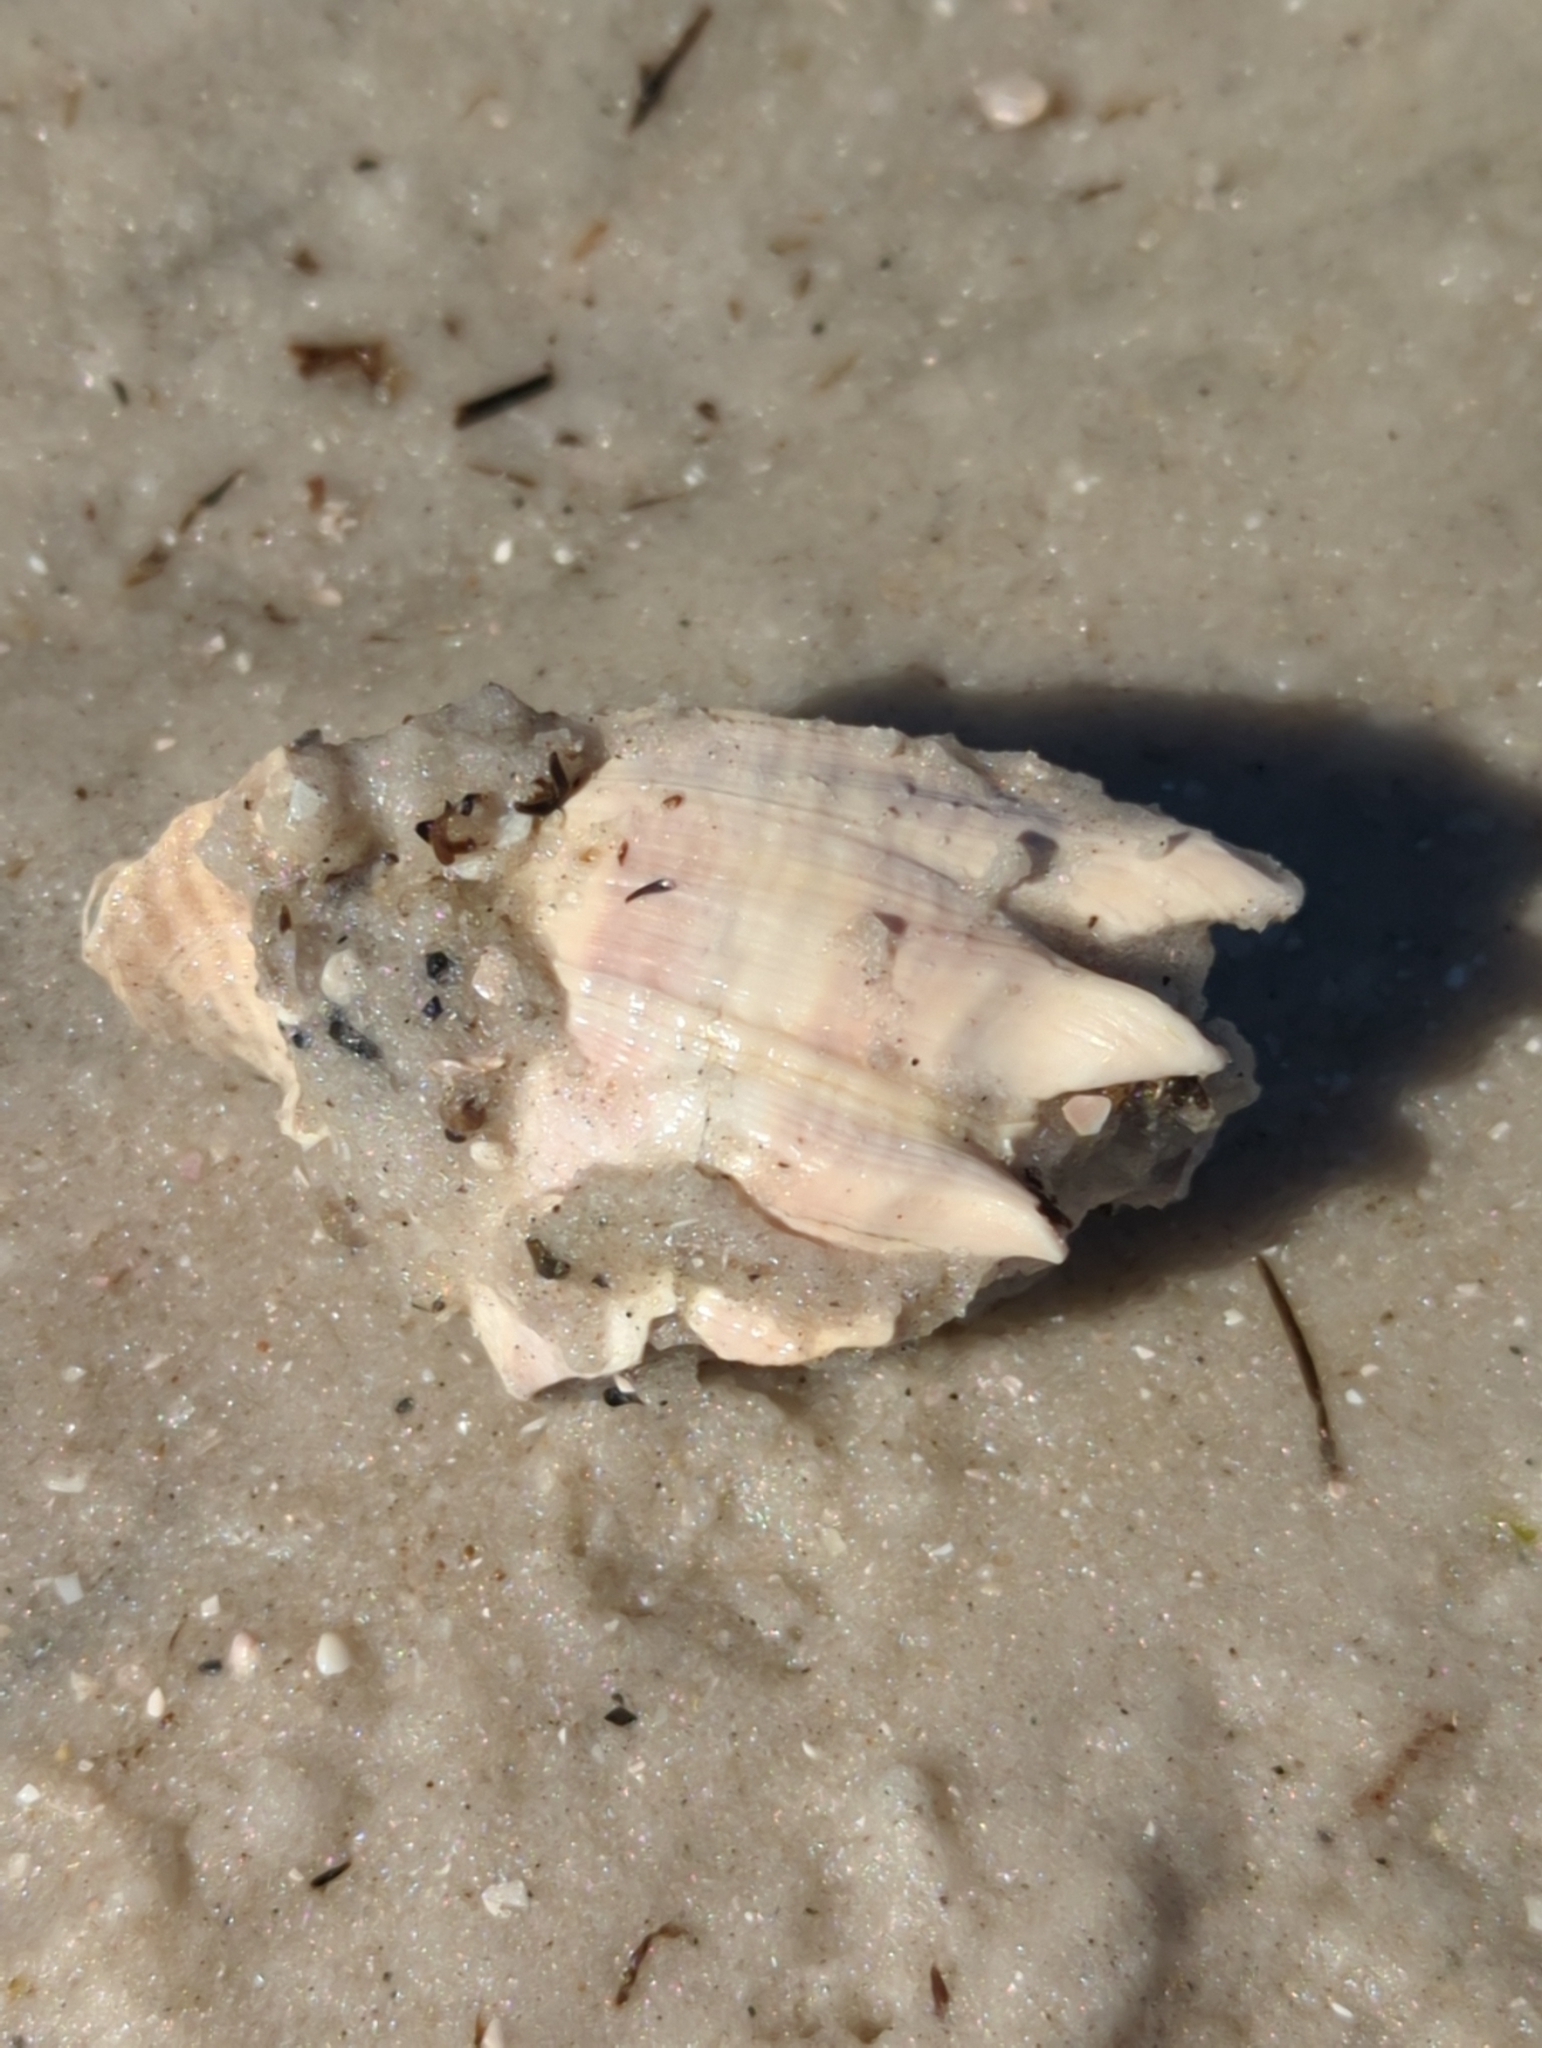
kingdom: Animalia
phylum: Mollusca
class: Gastropoda
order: Neogastropoda
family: Melongenidae
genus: Melongena
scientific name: Melongena corona
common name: American crown conch
